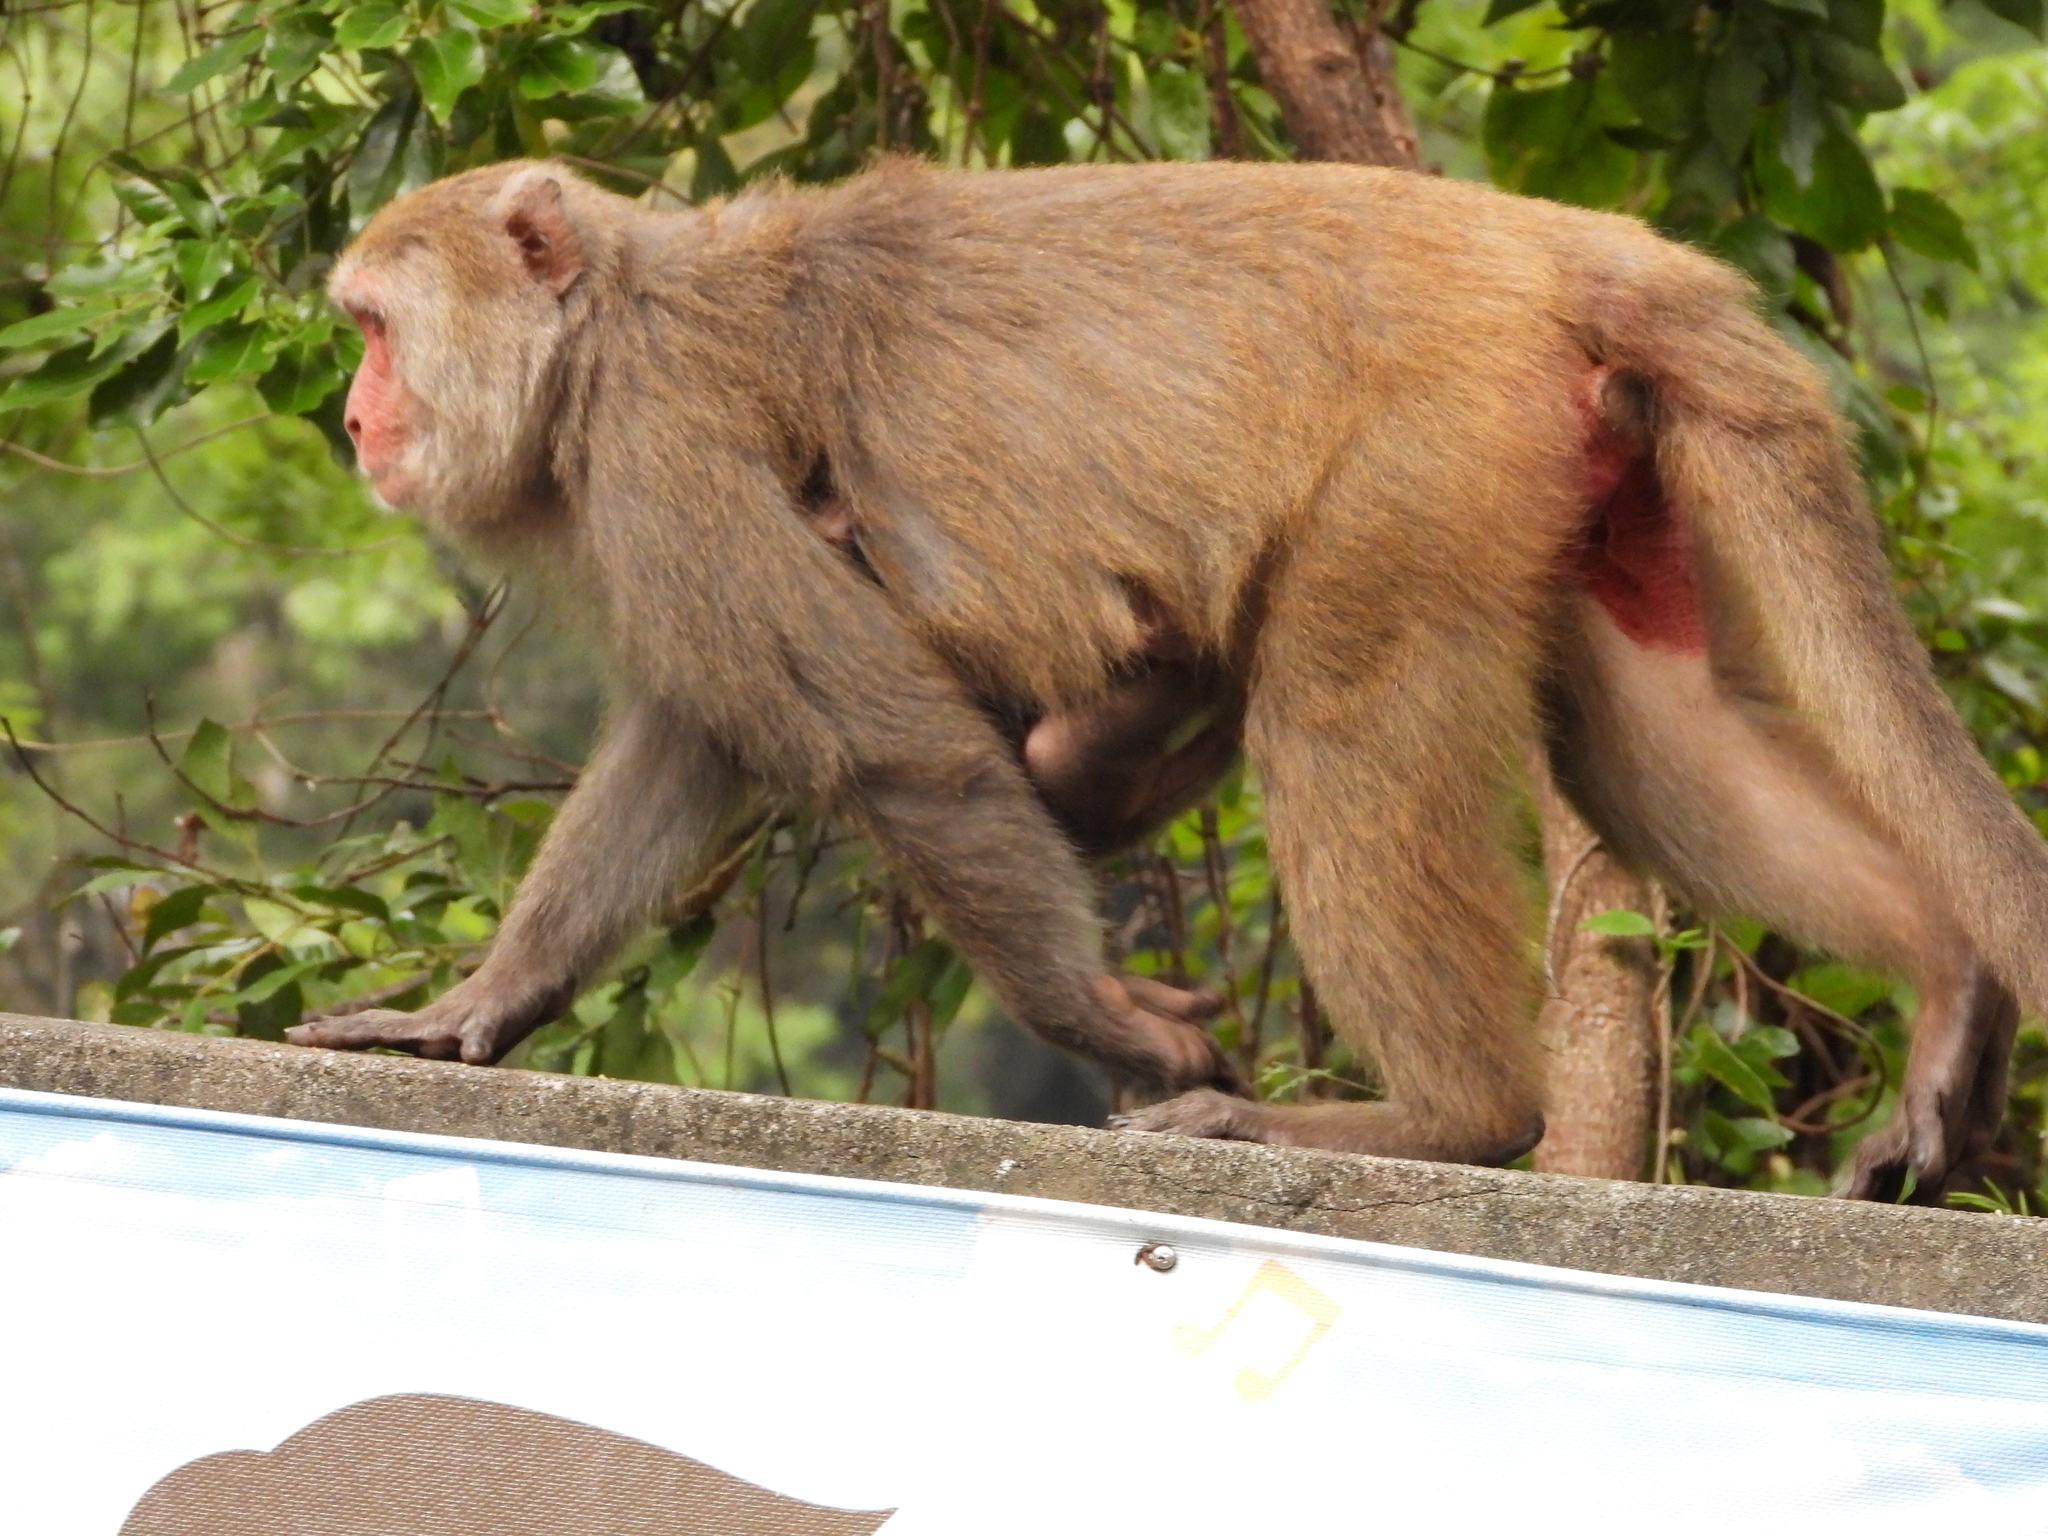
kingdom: Animalia
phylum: Chordata
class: Mammalia
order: Primates
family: Cercopithecidae
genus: Macaca
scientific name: Macaca cyclopis
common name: Formosan rock macaque
